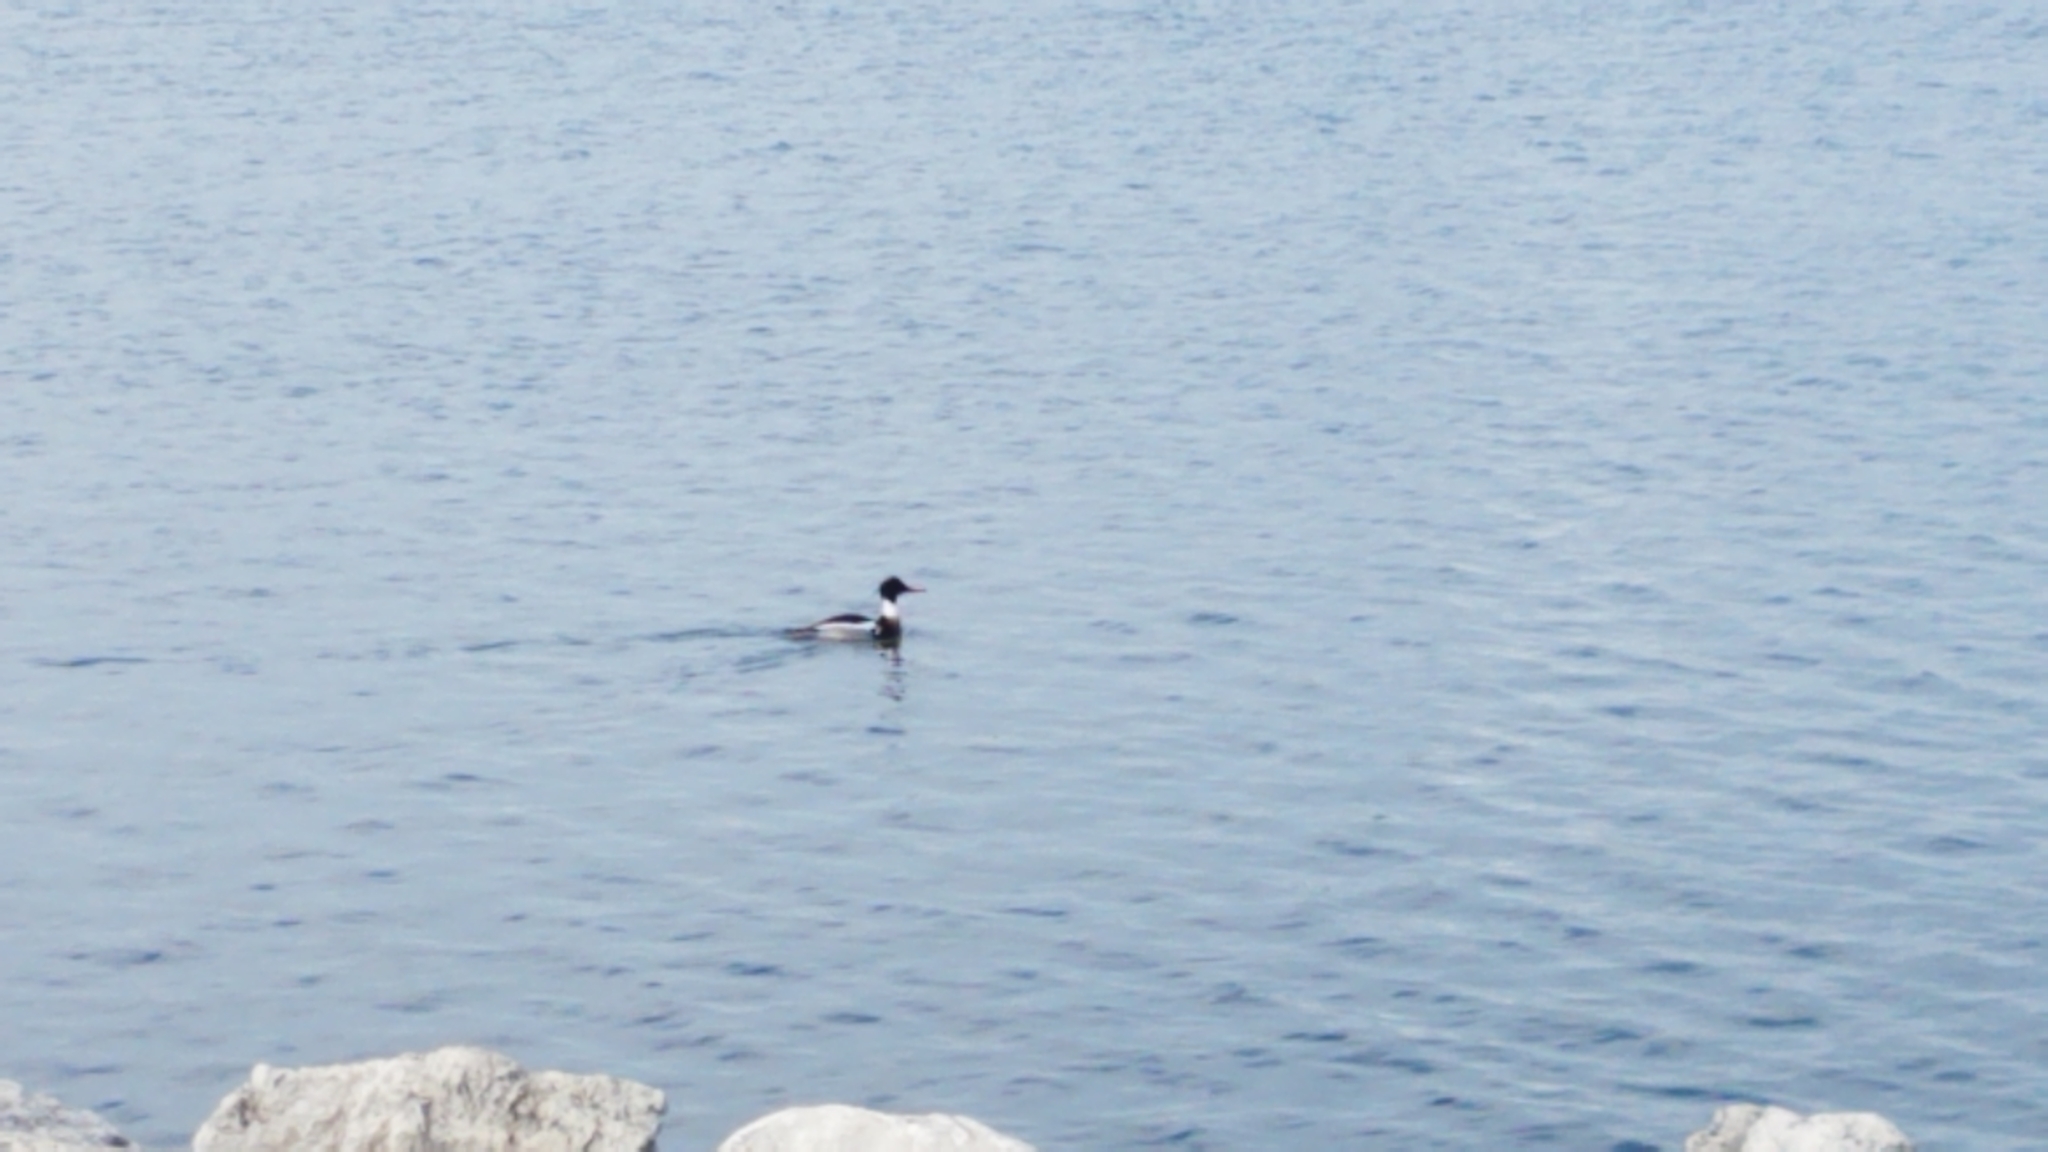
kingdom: Animalia
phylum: Chordata
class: Aves
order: Anseriformes
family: Anatidae
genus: Mergus
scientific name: Mergus serrator
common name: Red-breasted merganser
